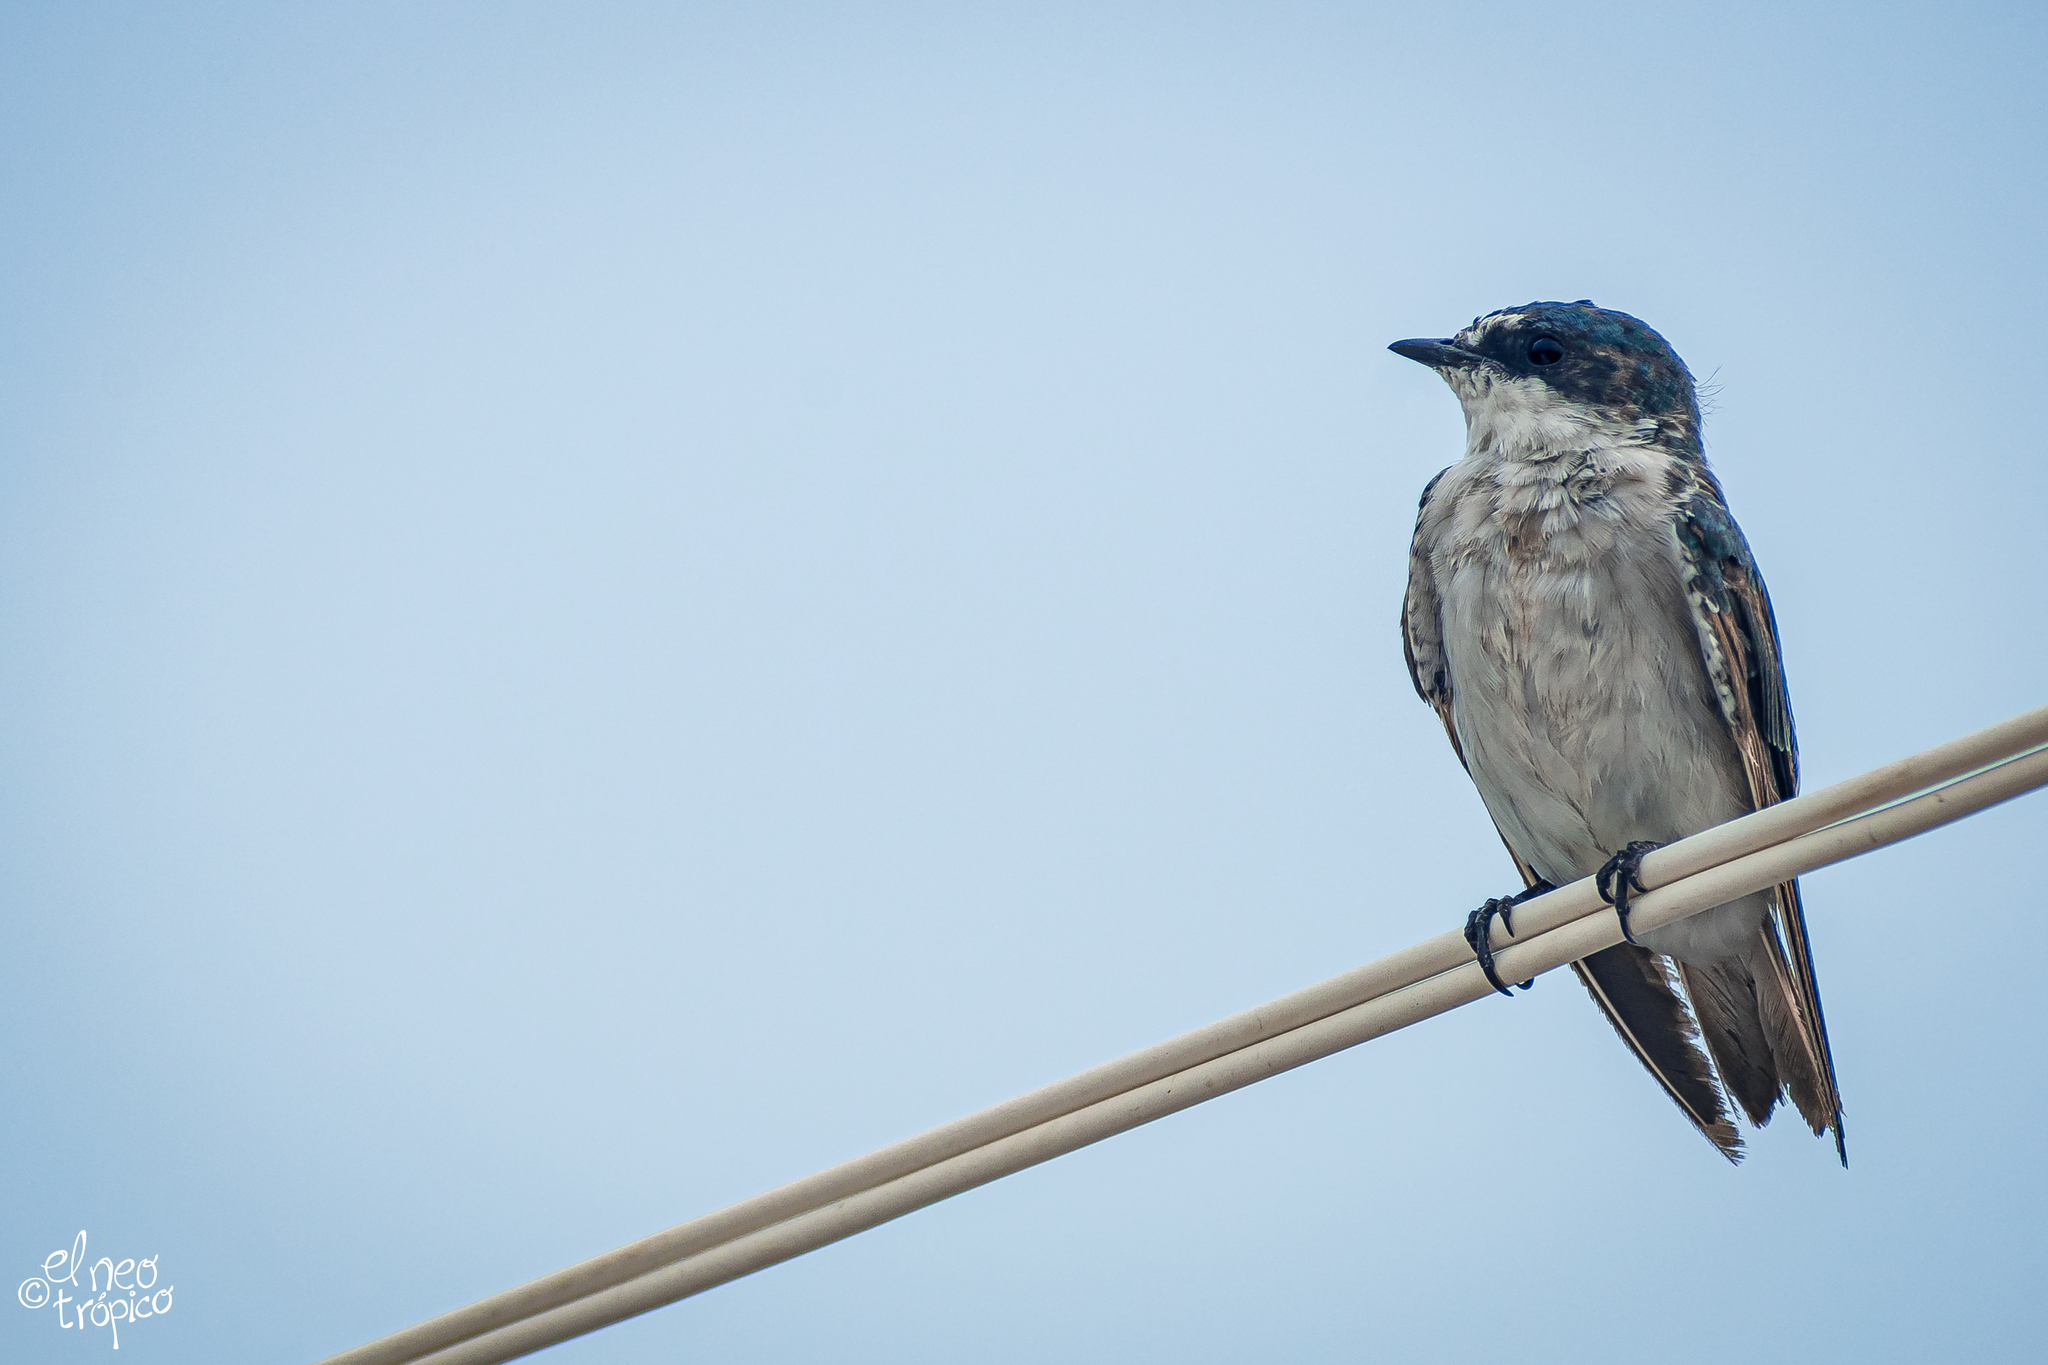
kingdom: Animalia
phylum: Chordata
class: Aves
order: Passeriformes
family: Hirundinidae
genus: Tachycineta
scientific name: Tachycineta albilinea
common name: Mangrove swallow
